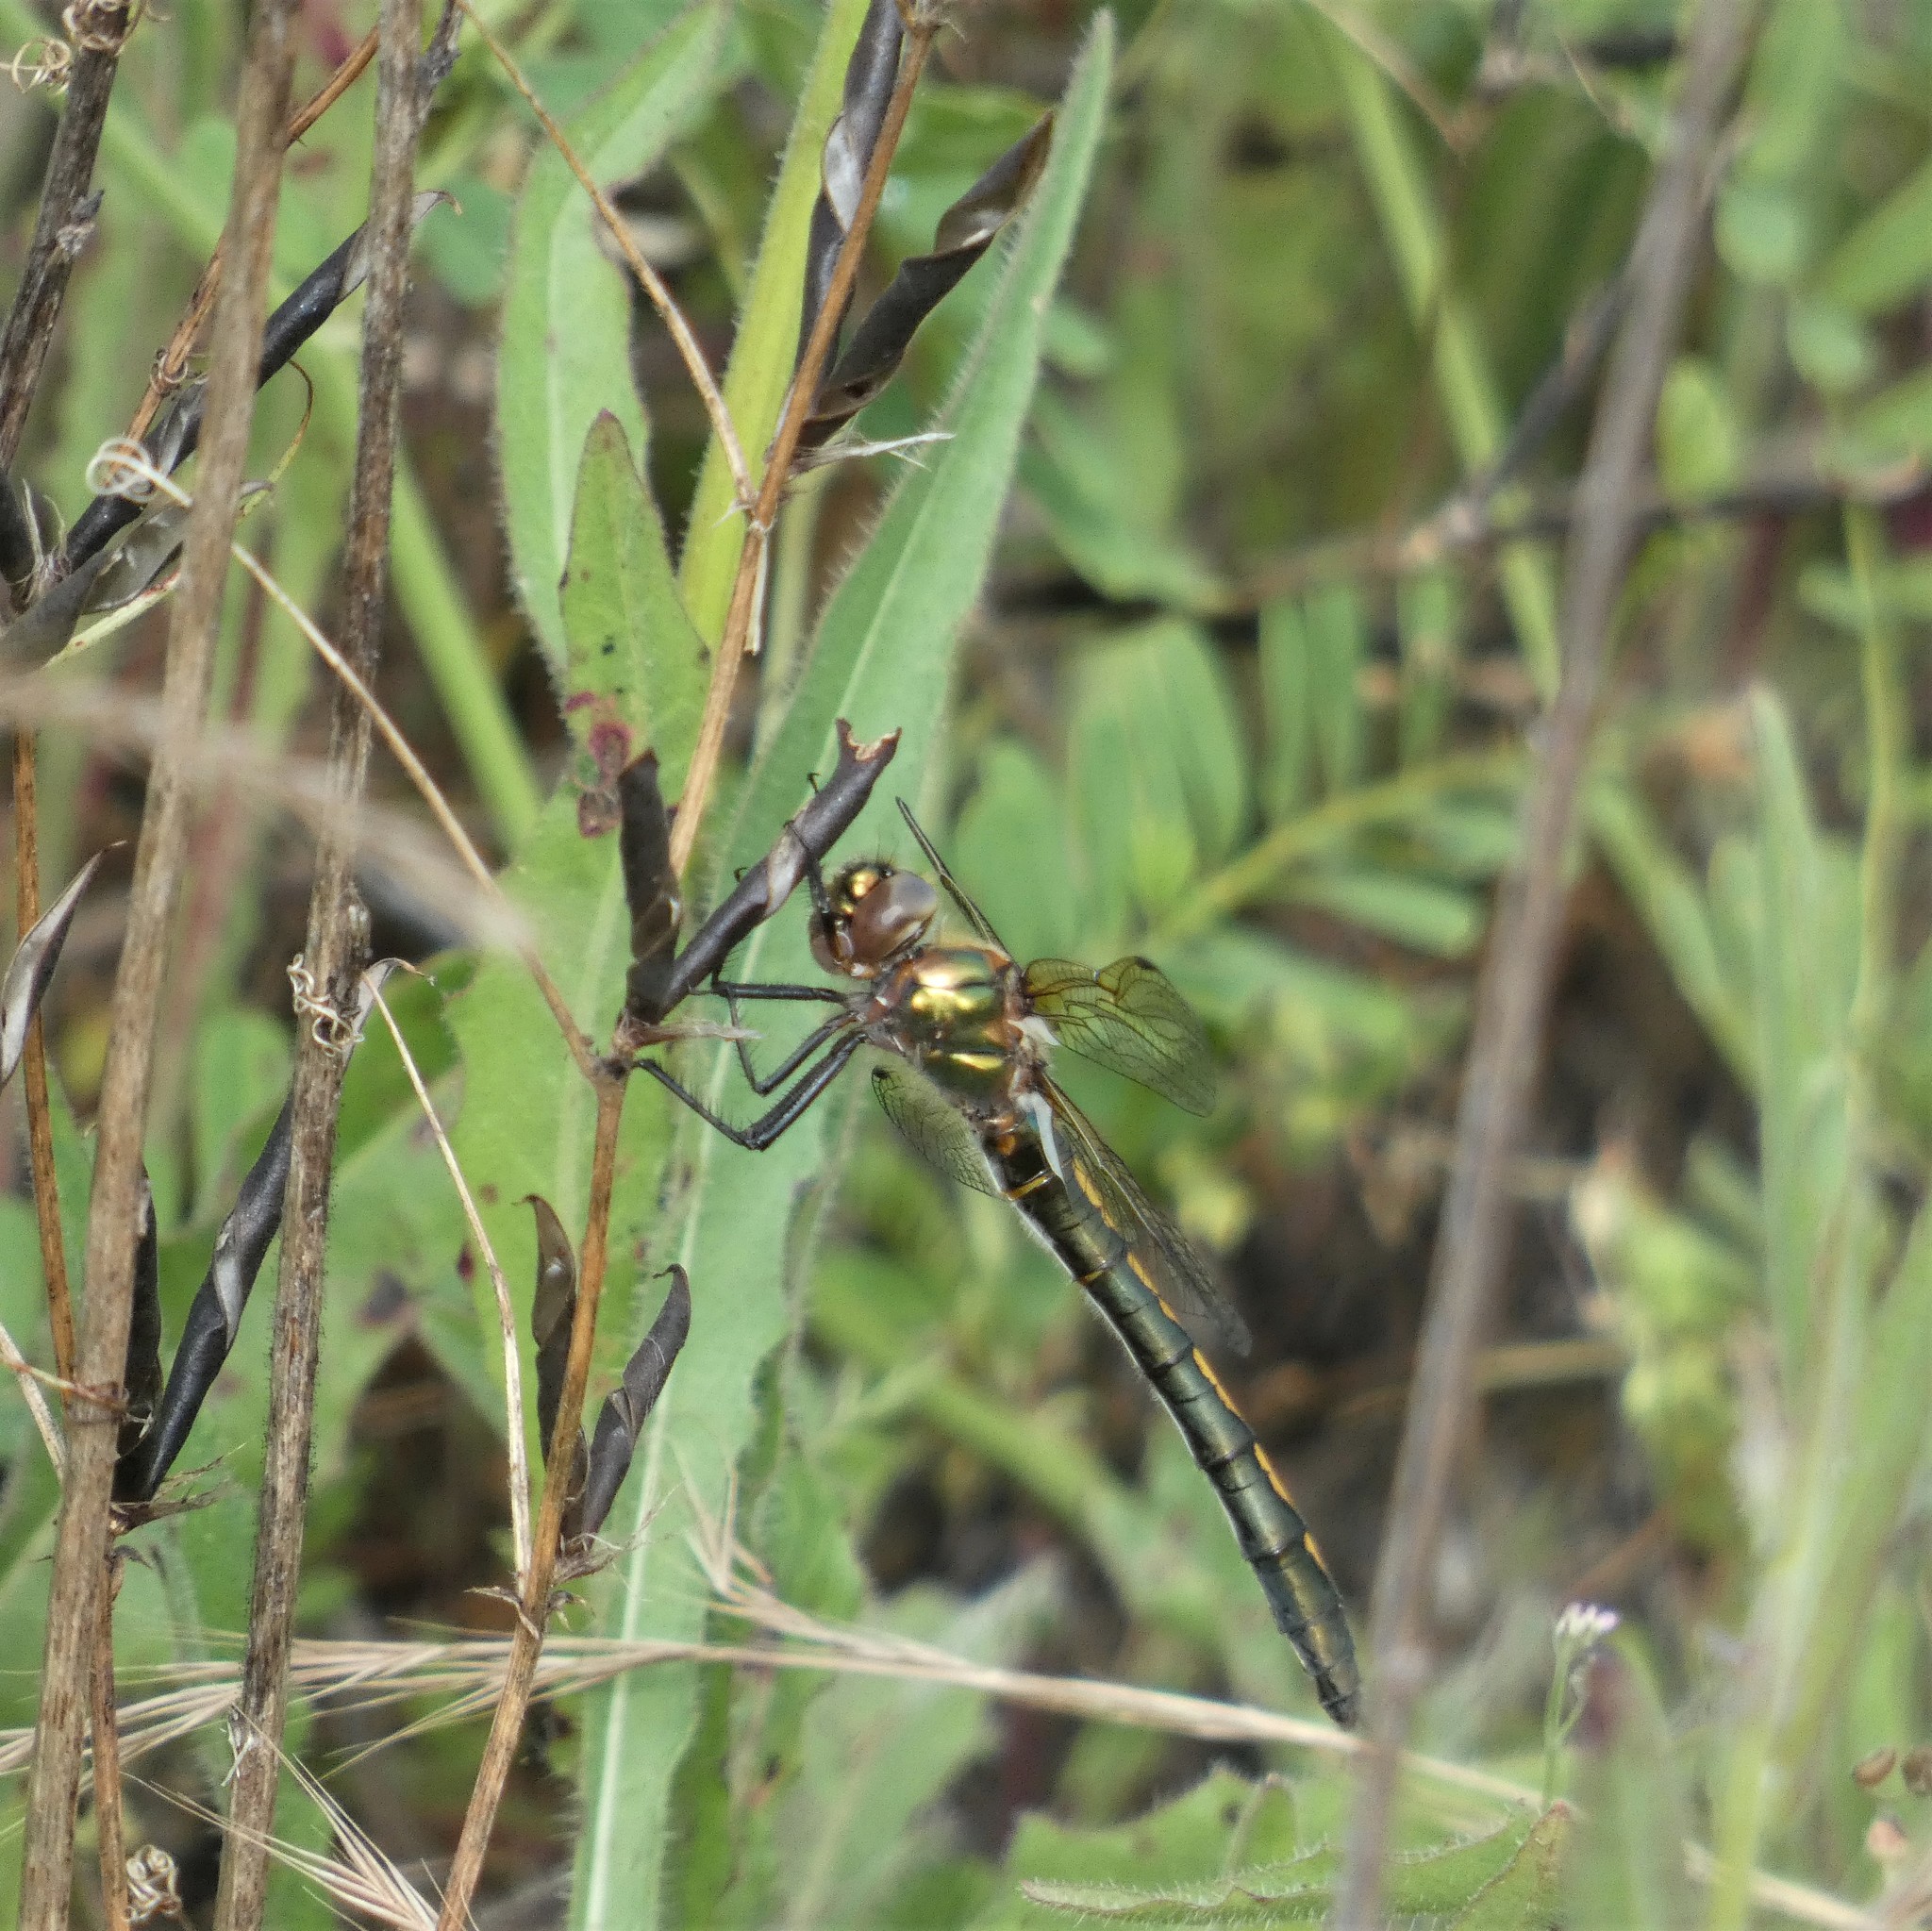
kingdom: Animalia
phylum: Arthropoda
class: Insecta
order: Odonata
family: Corduliidae
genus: Oxygastra
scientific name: Oxygastra curtisii
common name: Orange-spotted emerald
